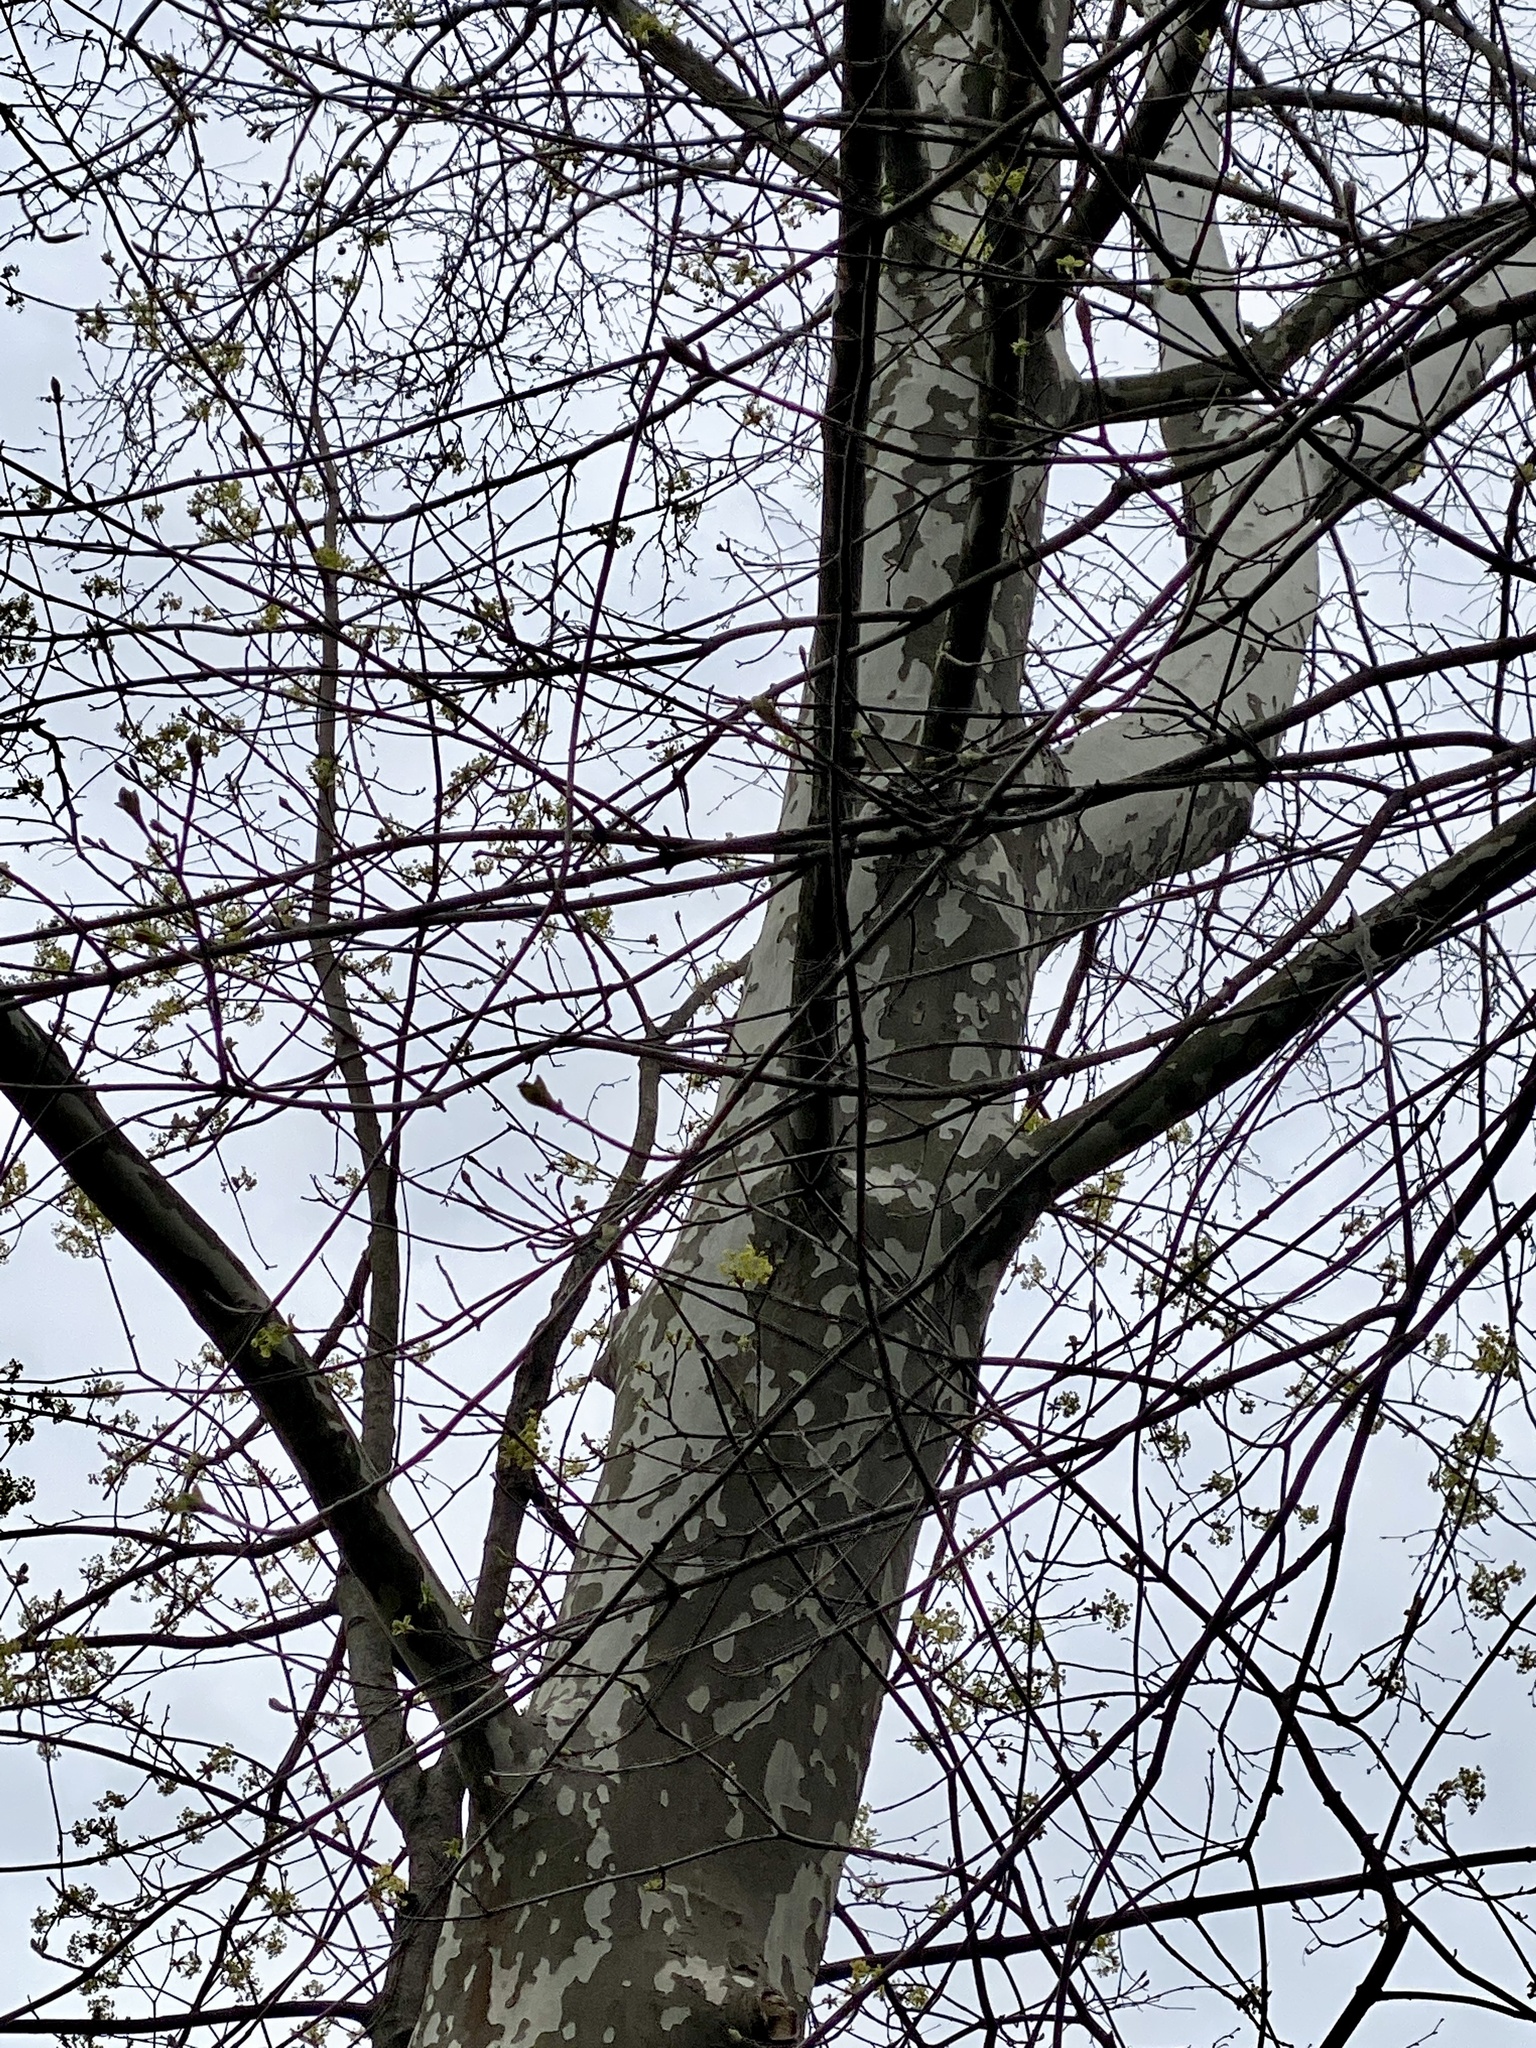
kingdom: Plantae
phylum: Tracheophyta
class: Magnoliopsida
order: Proteales
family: Platanaceae
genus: Platanus
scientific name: Platanus occidentalis
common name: American sycamore
